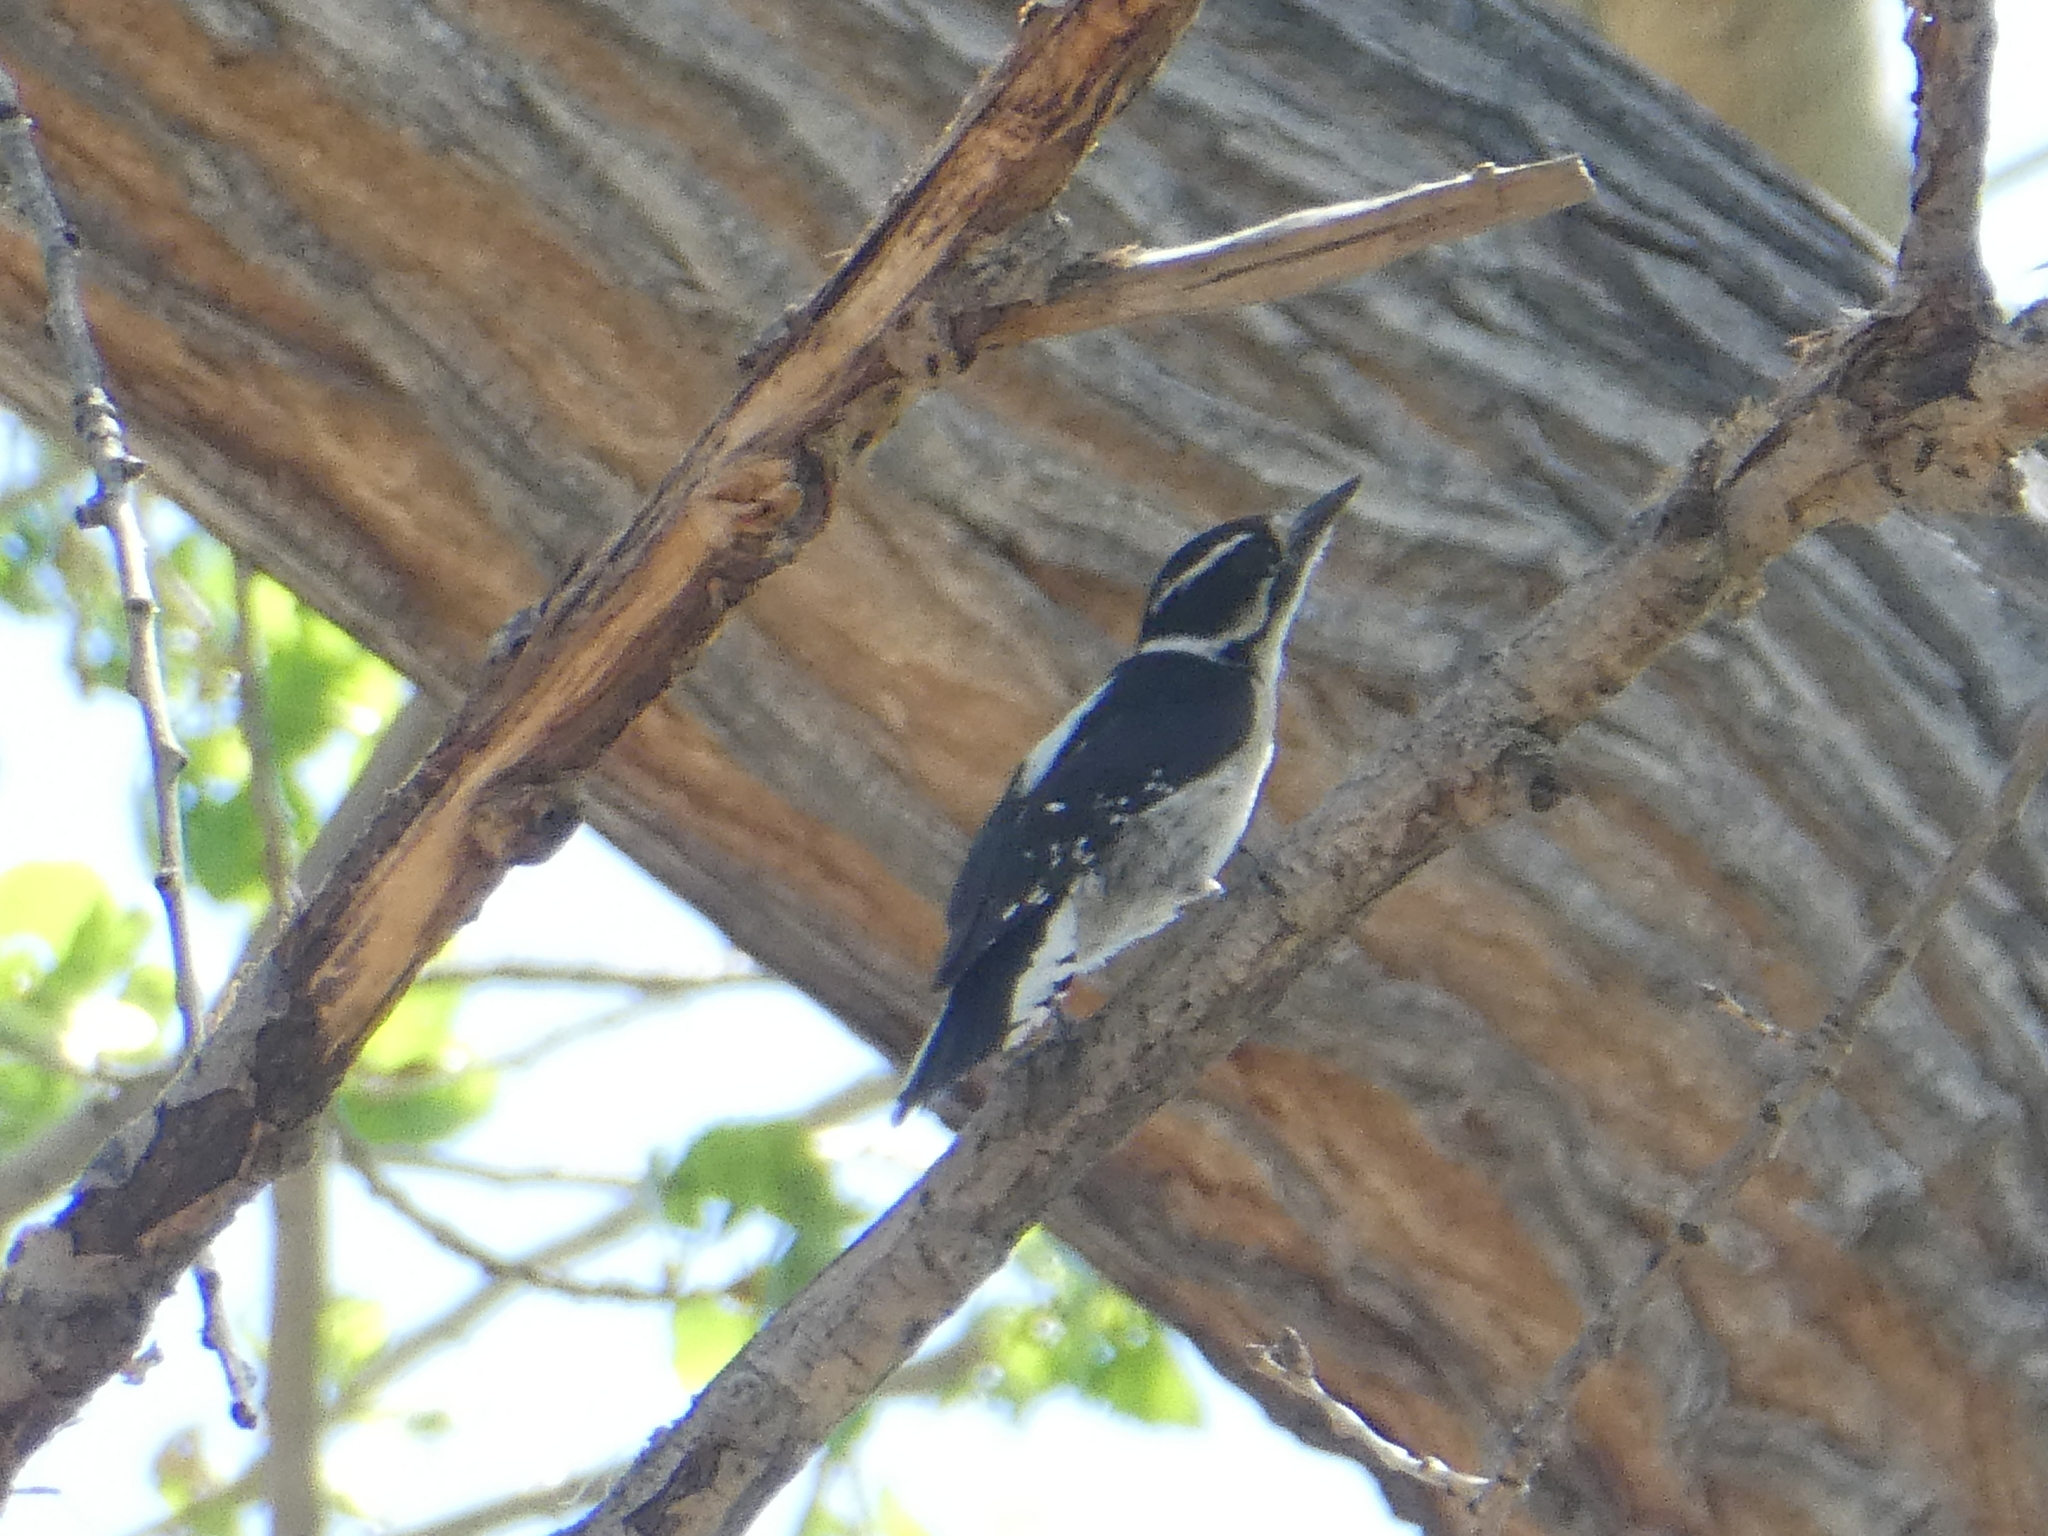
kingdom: Animalia
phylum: Chordata
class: Aves
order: Piciformes
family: Picidae
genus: Dryobates
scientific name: Dryobates pubescens
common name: Downy woodpecker
